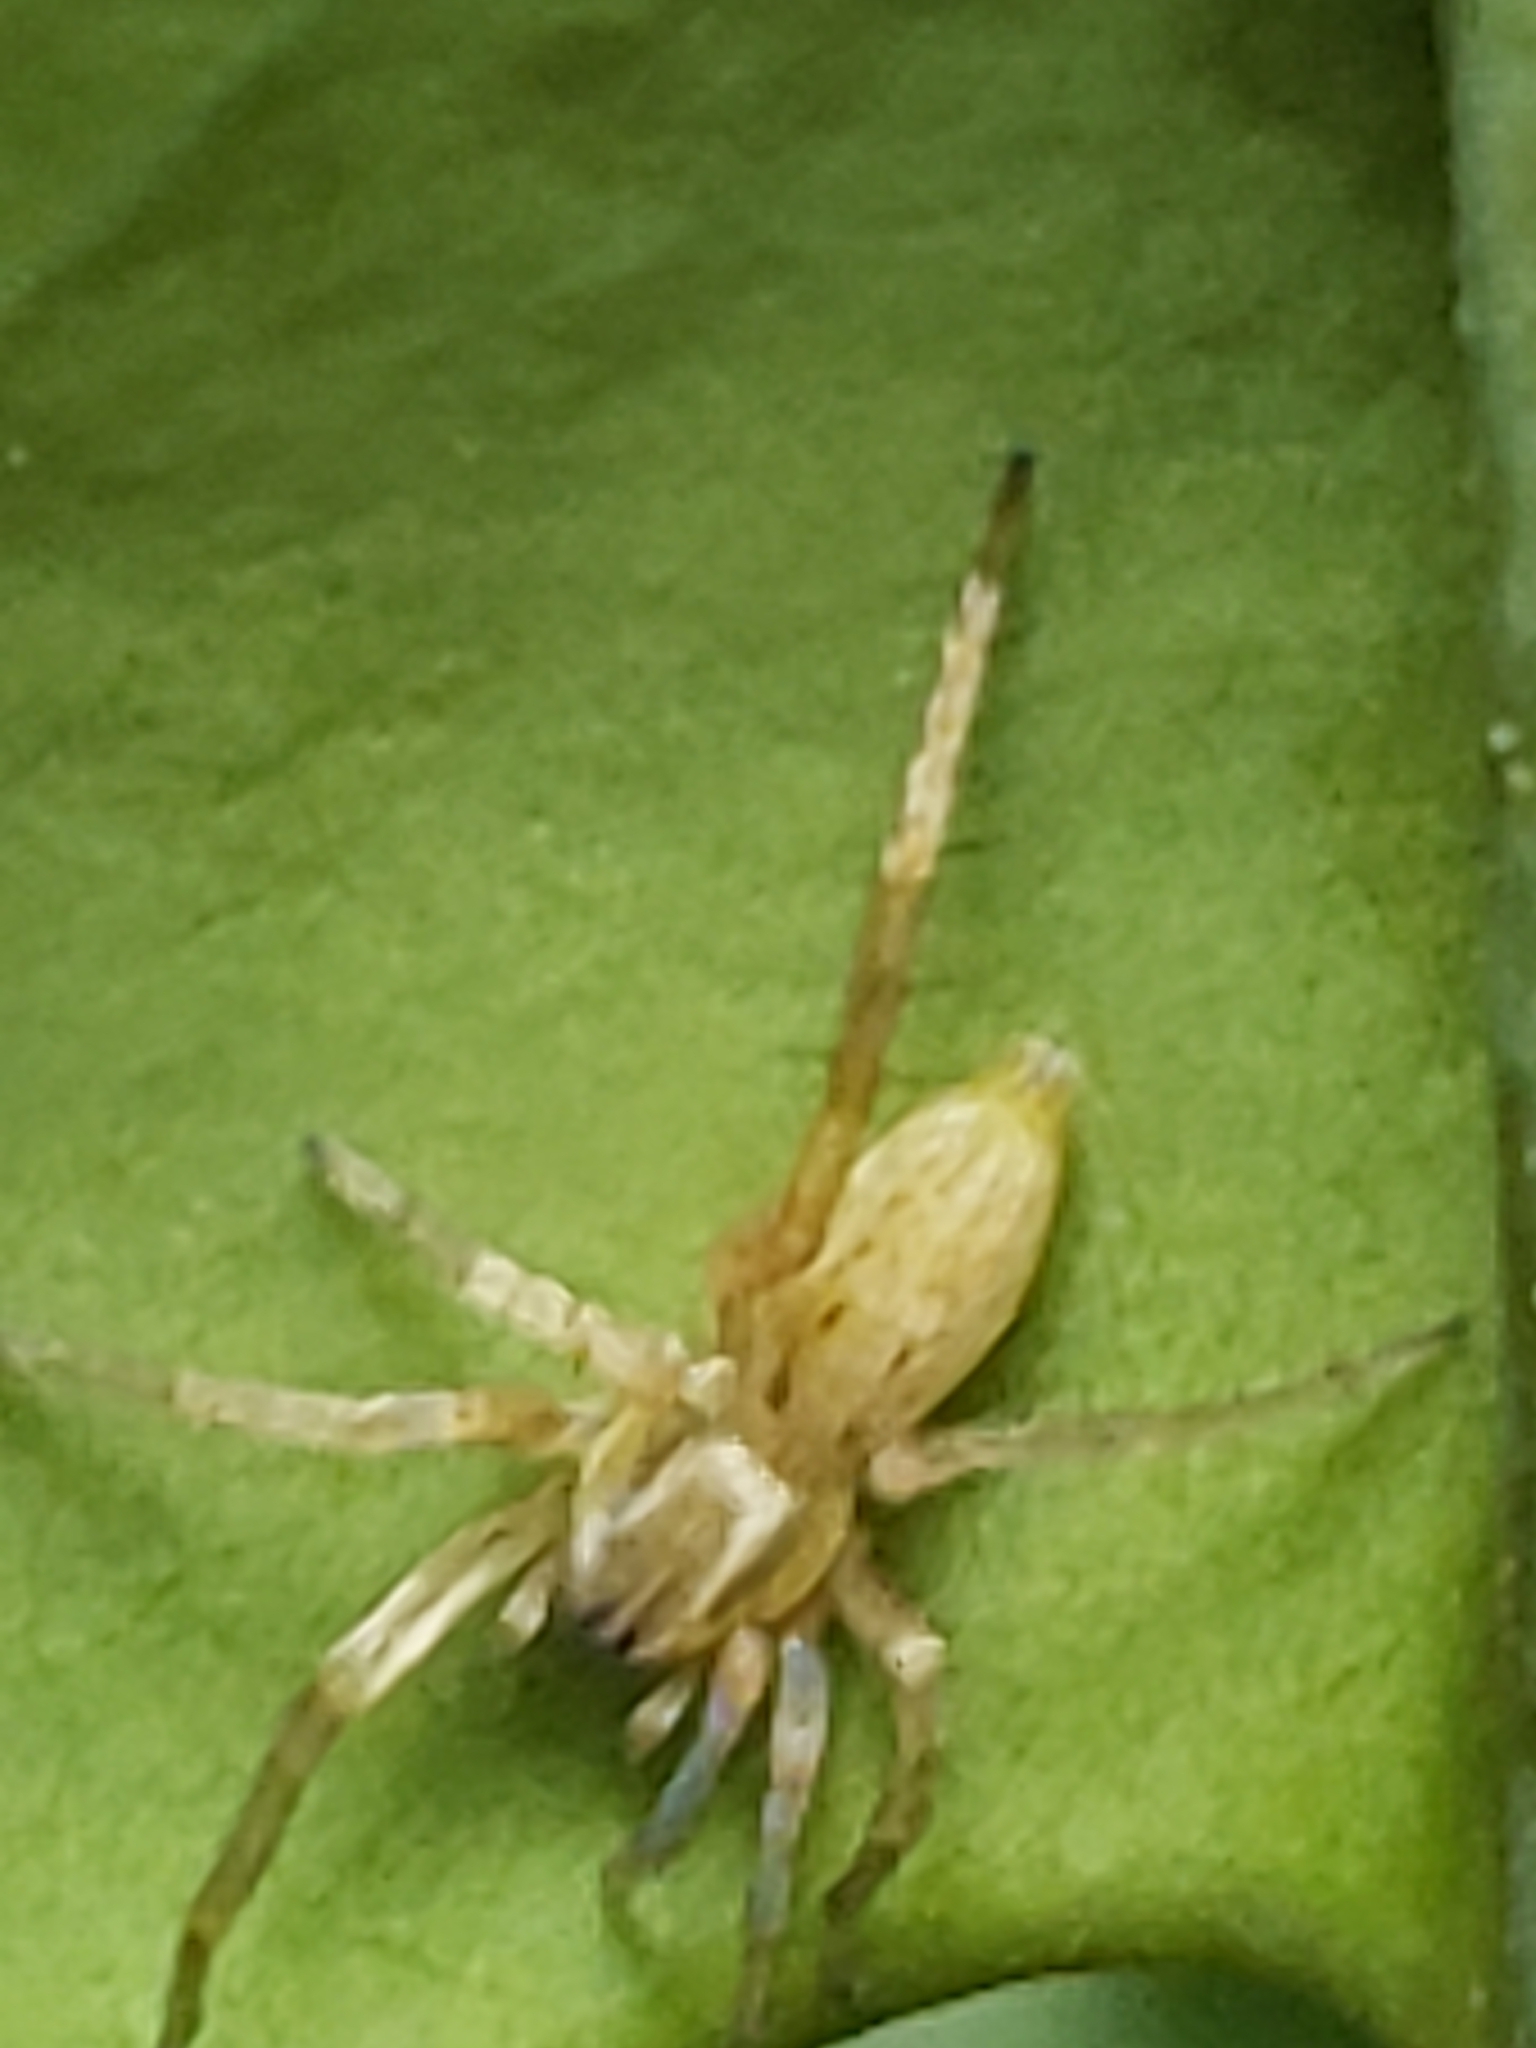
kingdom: Animalia
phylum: Arthropoda
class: Arachnida
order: Araneae
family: Anyphaenidae
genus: Hibana
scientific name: Hibana gracilis
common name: Garden ghost spider
